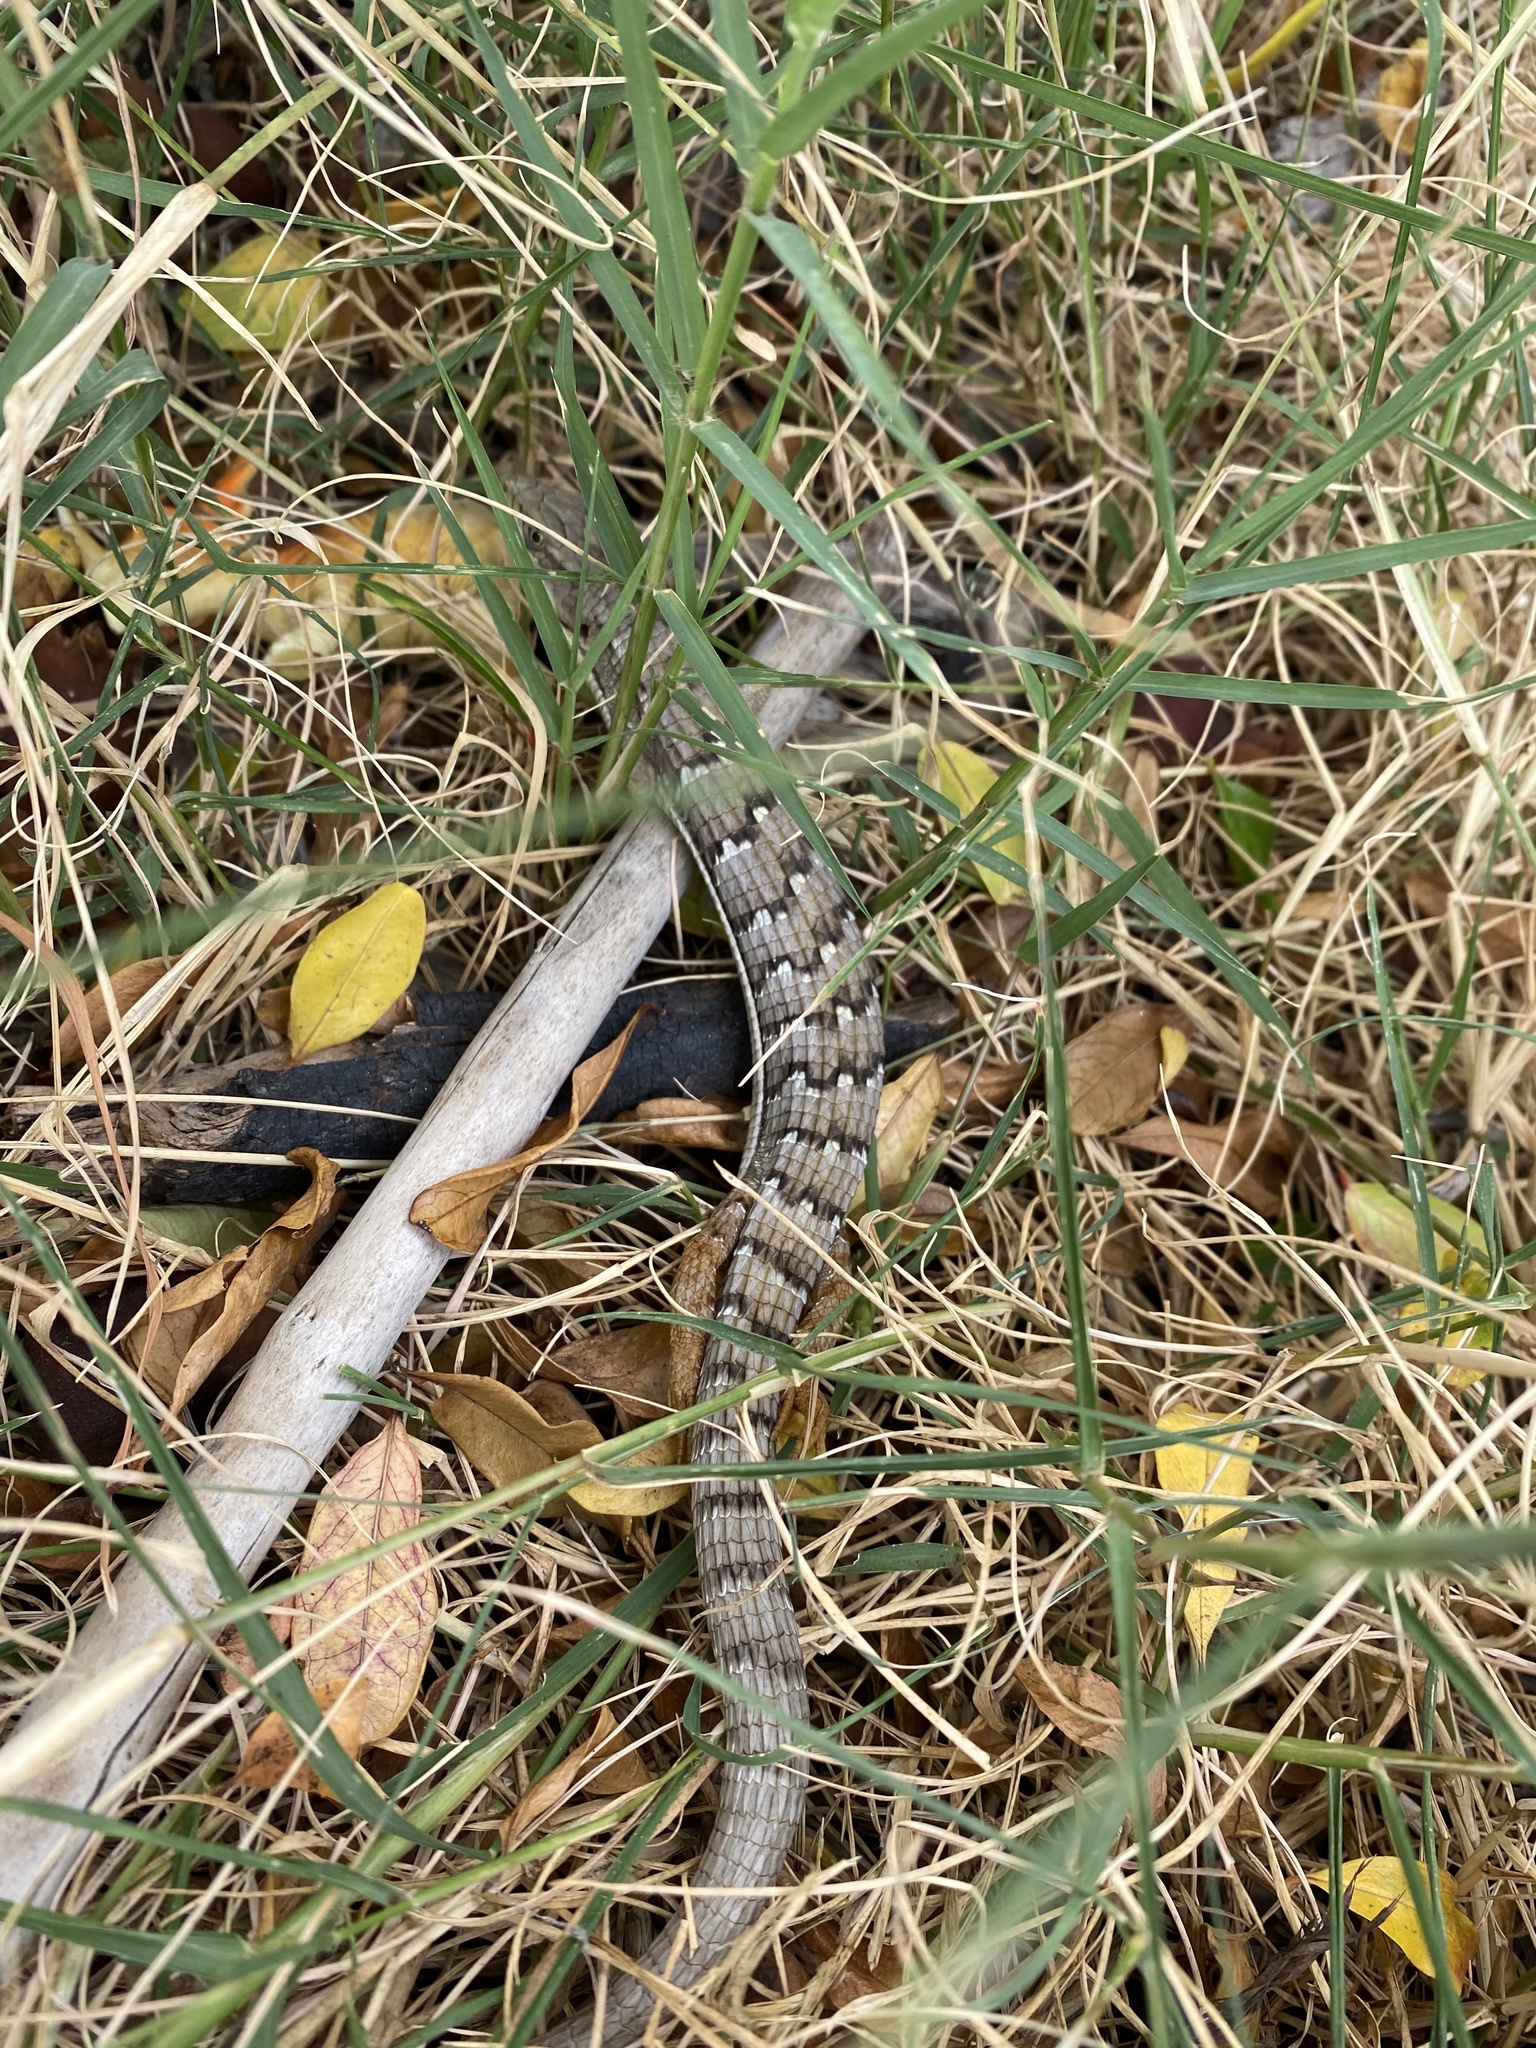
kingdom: Animalia
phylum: Chordata
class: Squamata
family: Anguidae
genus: Elgaria
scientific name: Elgaria multicarinata
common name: Southern alligator lizard
